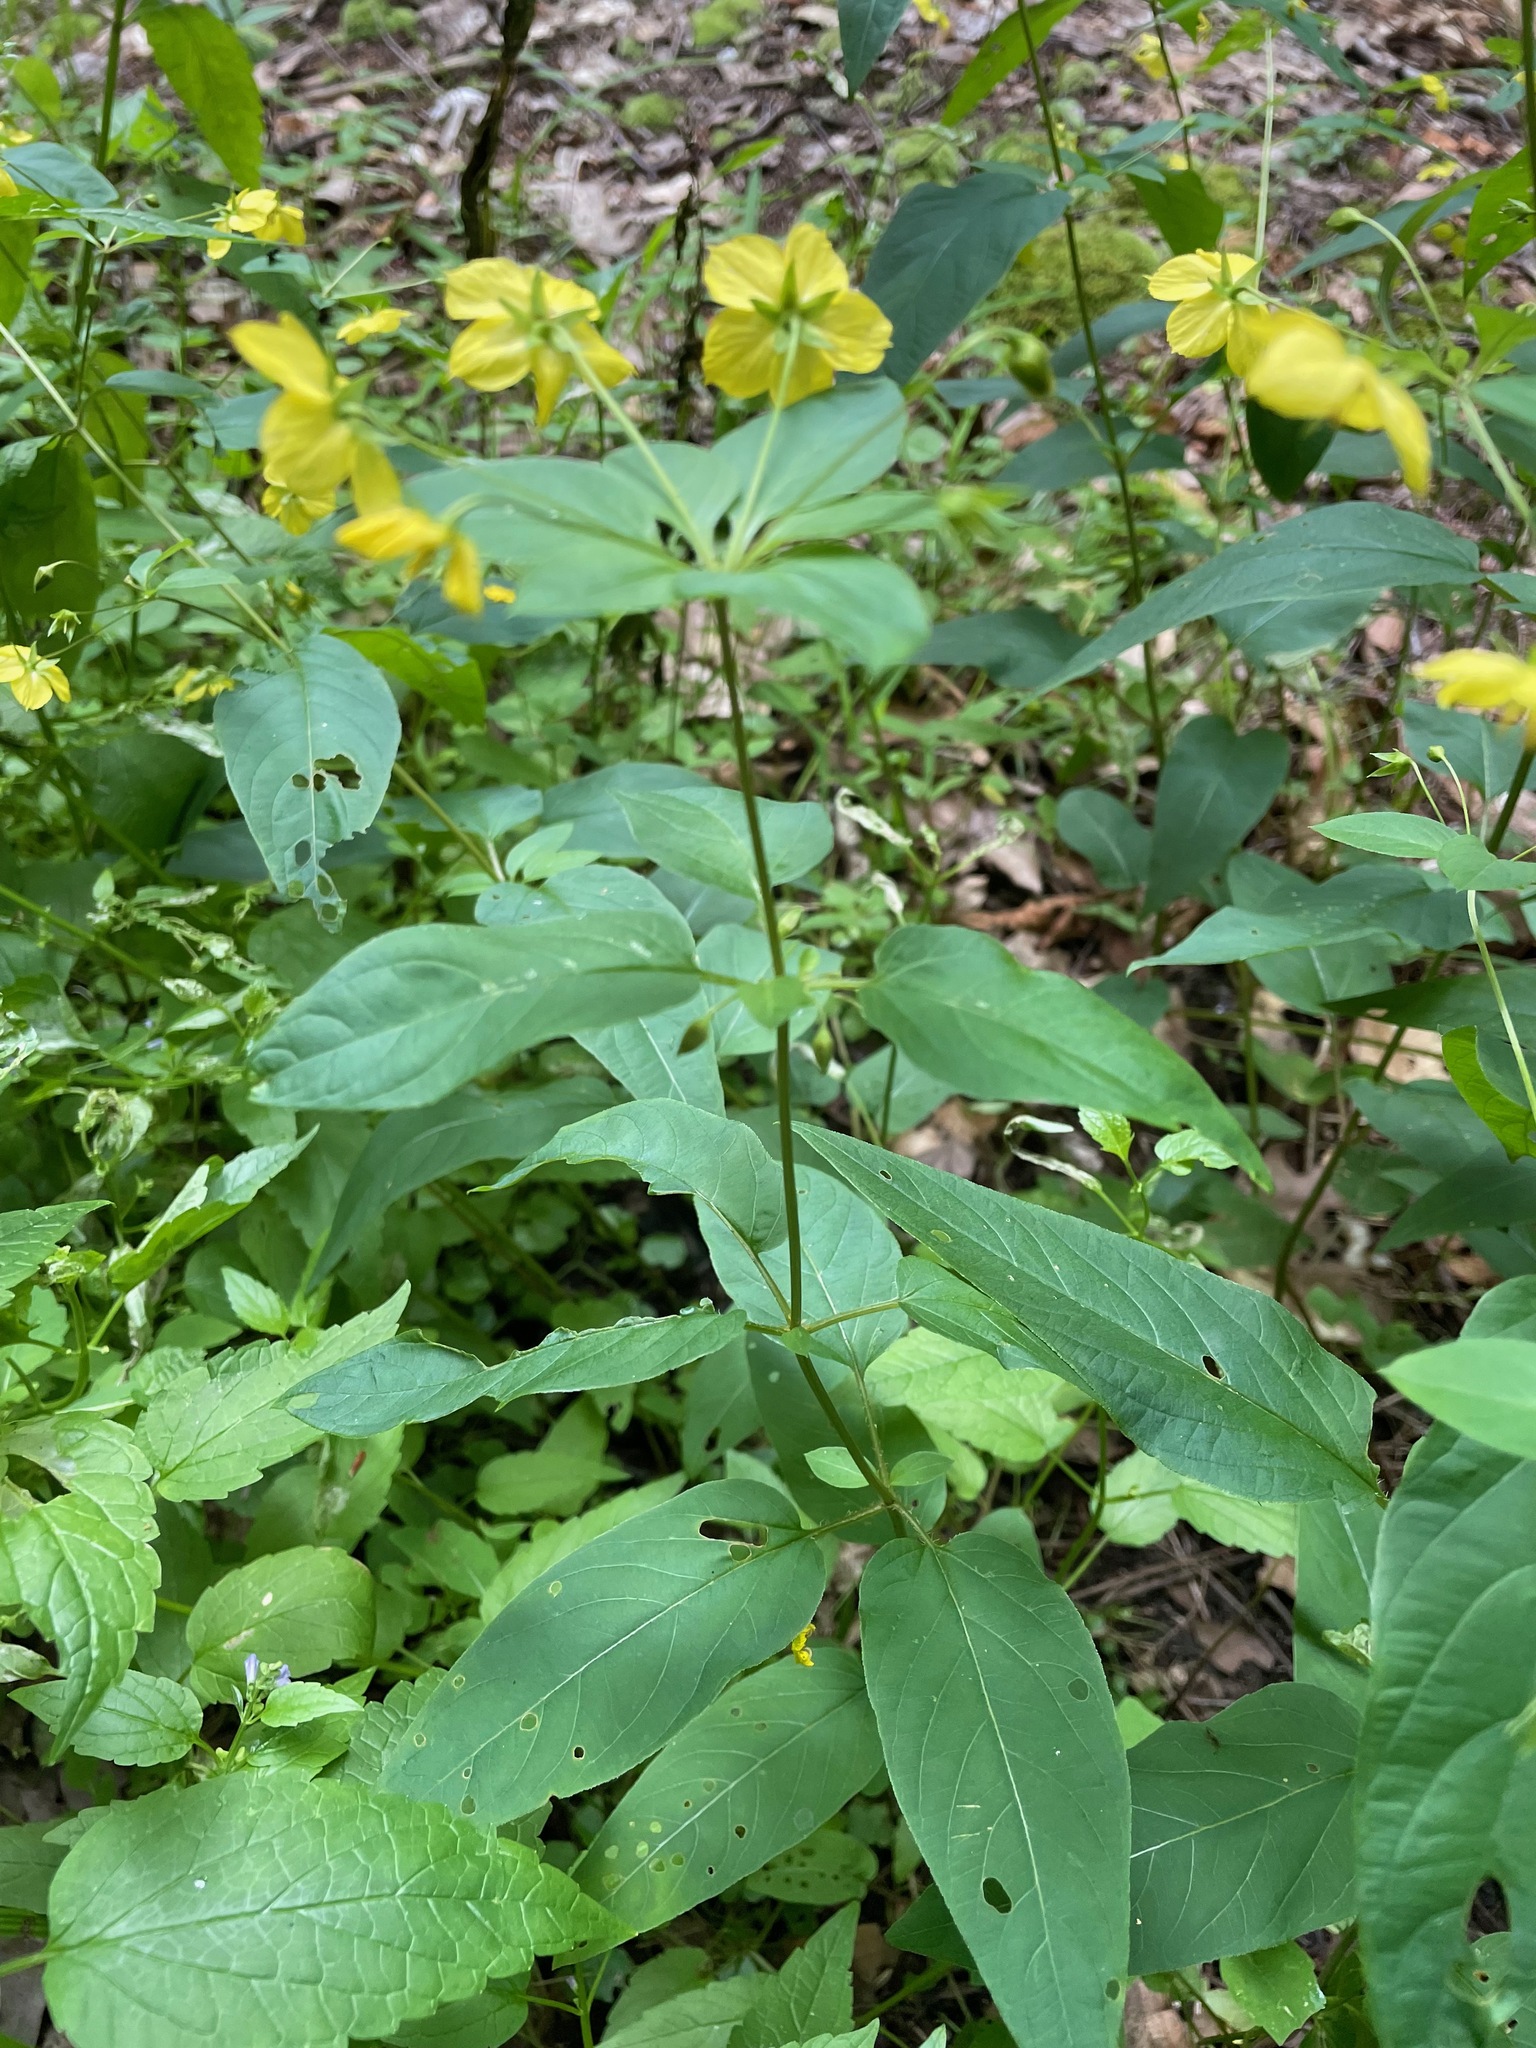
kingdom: Plantae
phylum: Tracheophyta
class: Magnoliopsida
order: Ericales
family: Primulaceae
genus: Lysimachia
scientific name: Lysimachia ciliata
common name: Fringed loosestrife
